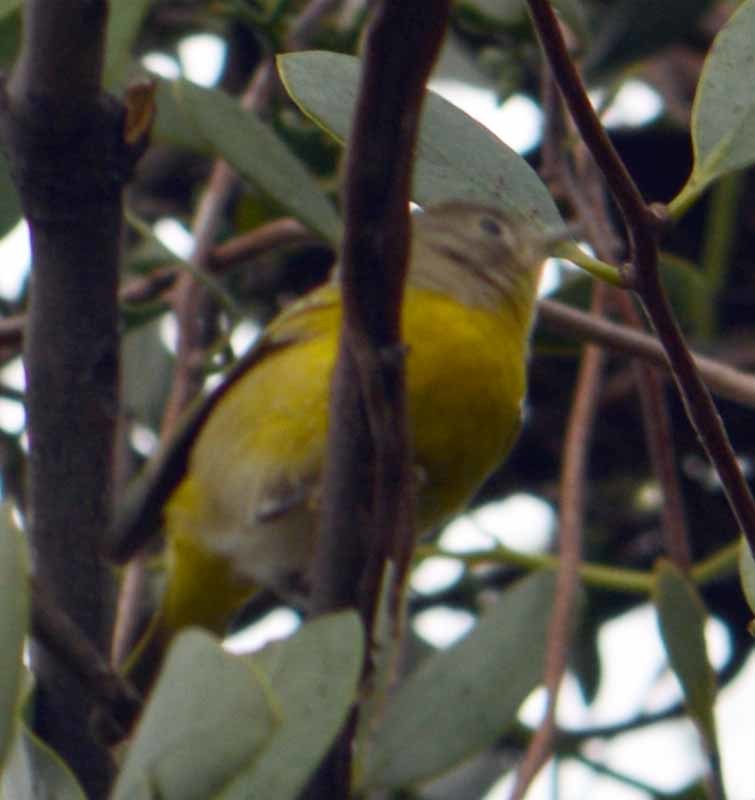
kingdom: Animalia
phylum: Chordata
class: Aves
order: Passeriformes
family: Parulidae
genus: Leiothlypis
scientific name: Leiothlypis ruficapilla
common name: Nashville warbler
